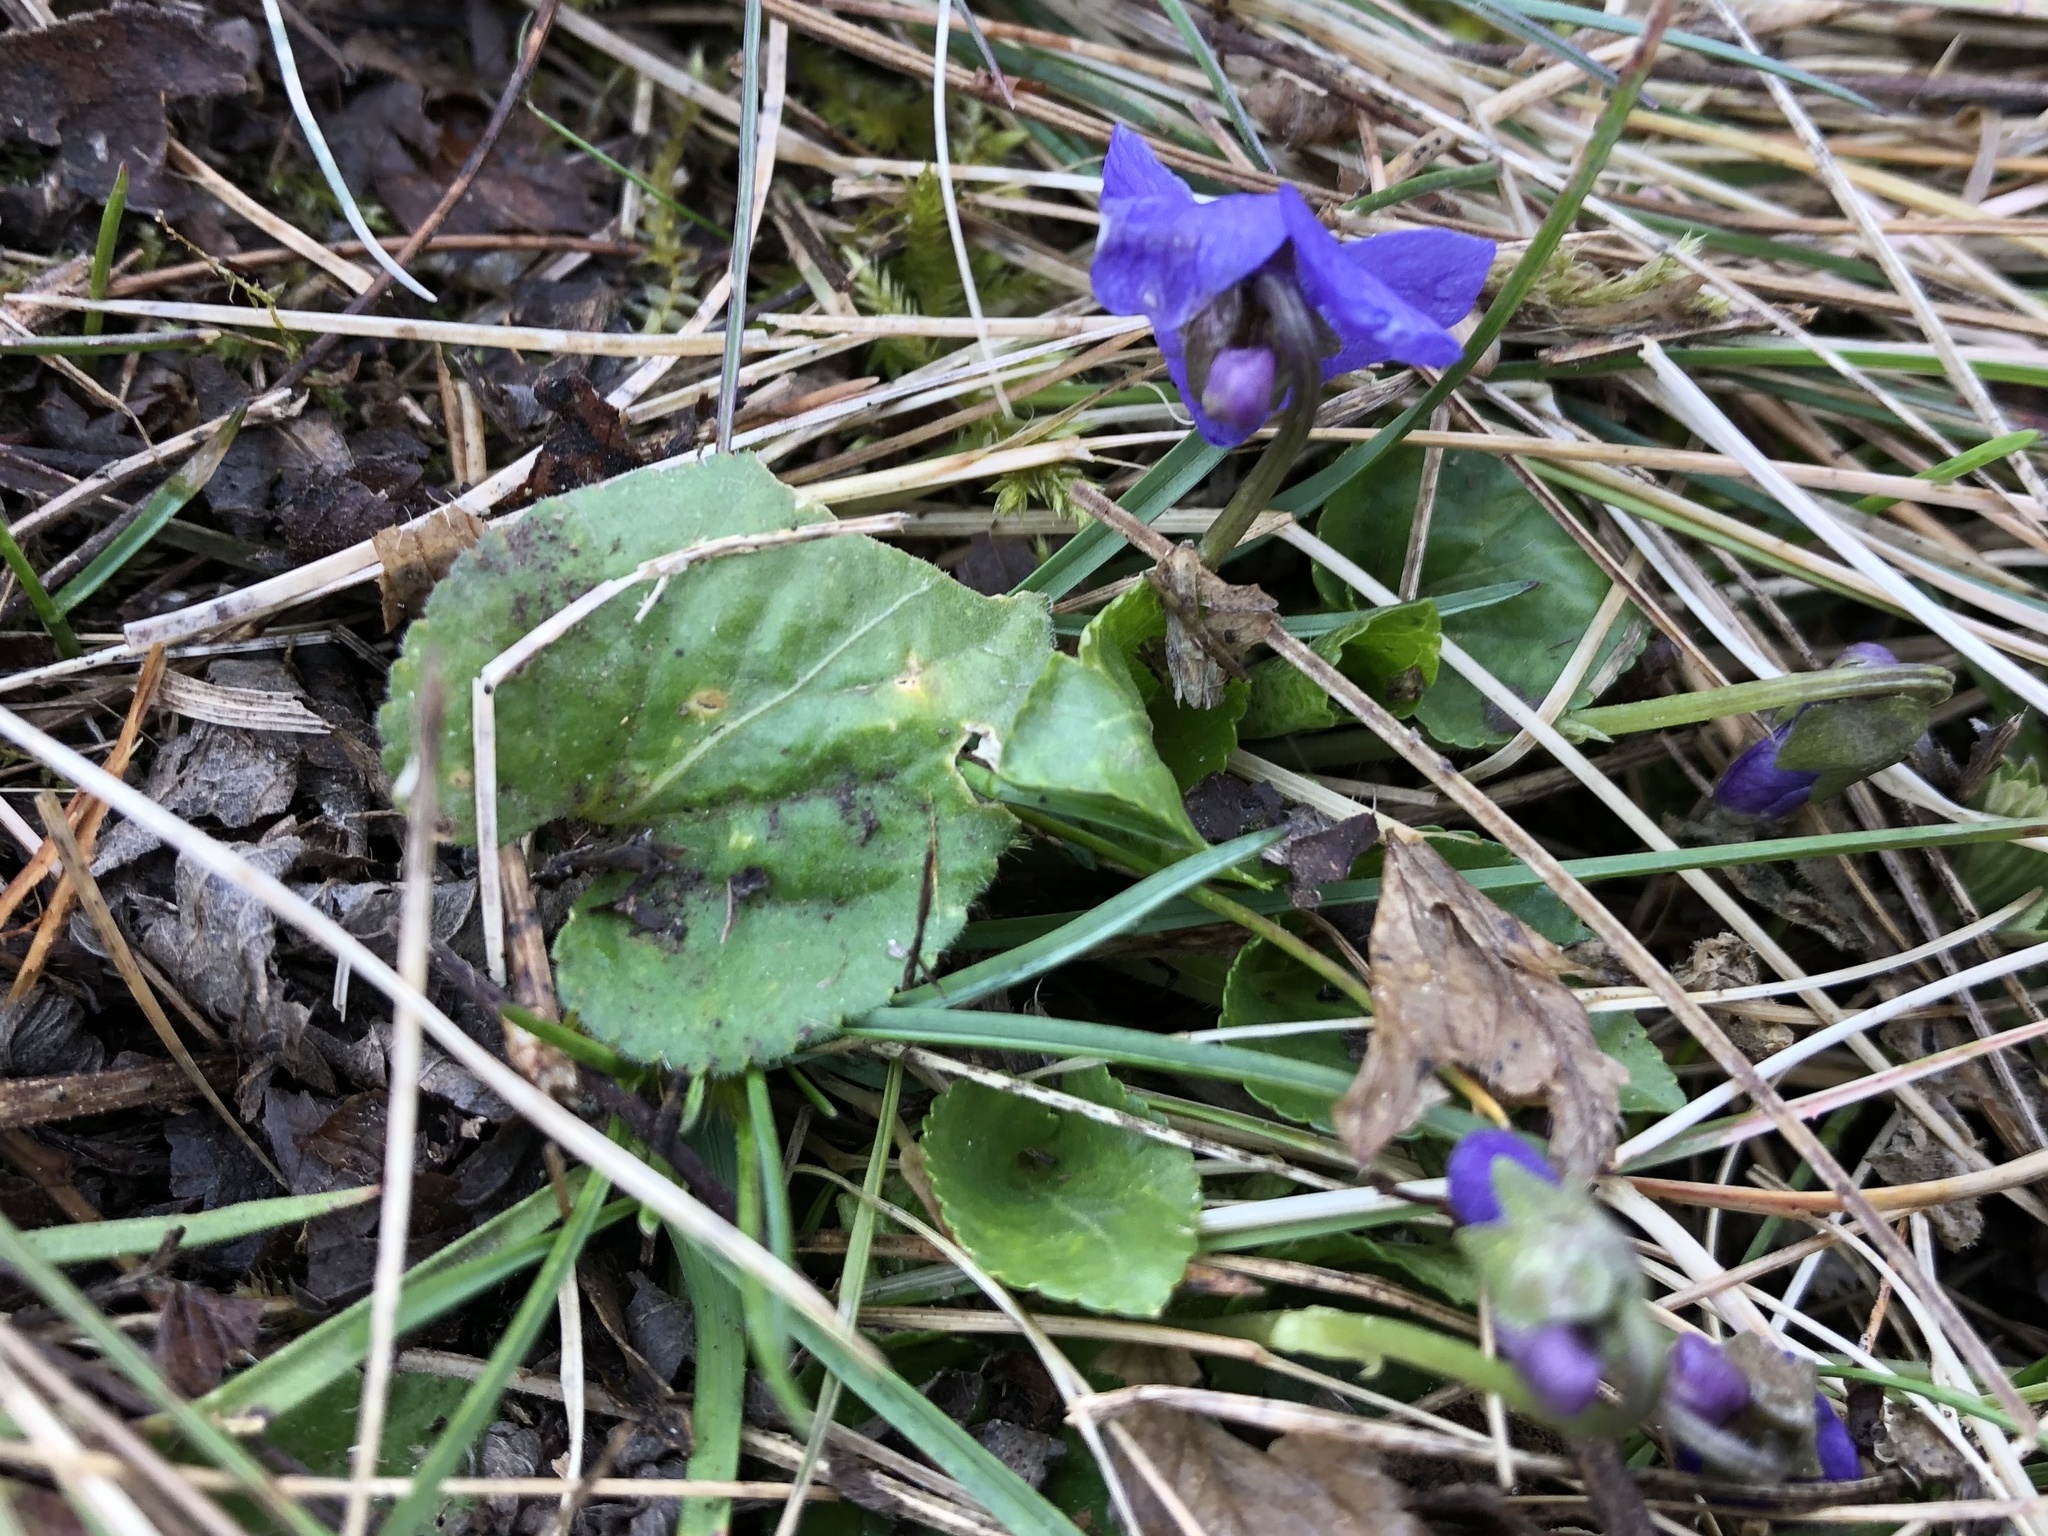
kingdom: Plantae
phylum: Tracheophyta
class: Magnoliopsida
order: Malpighiales
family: Violaceae
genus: Viola
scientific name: Viola odorata
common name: Sweet violet
